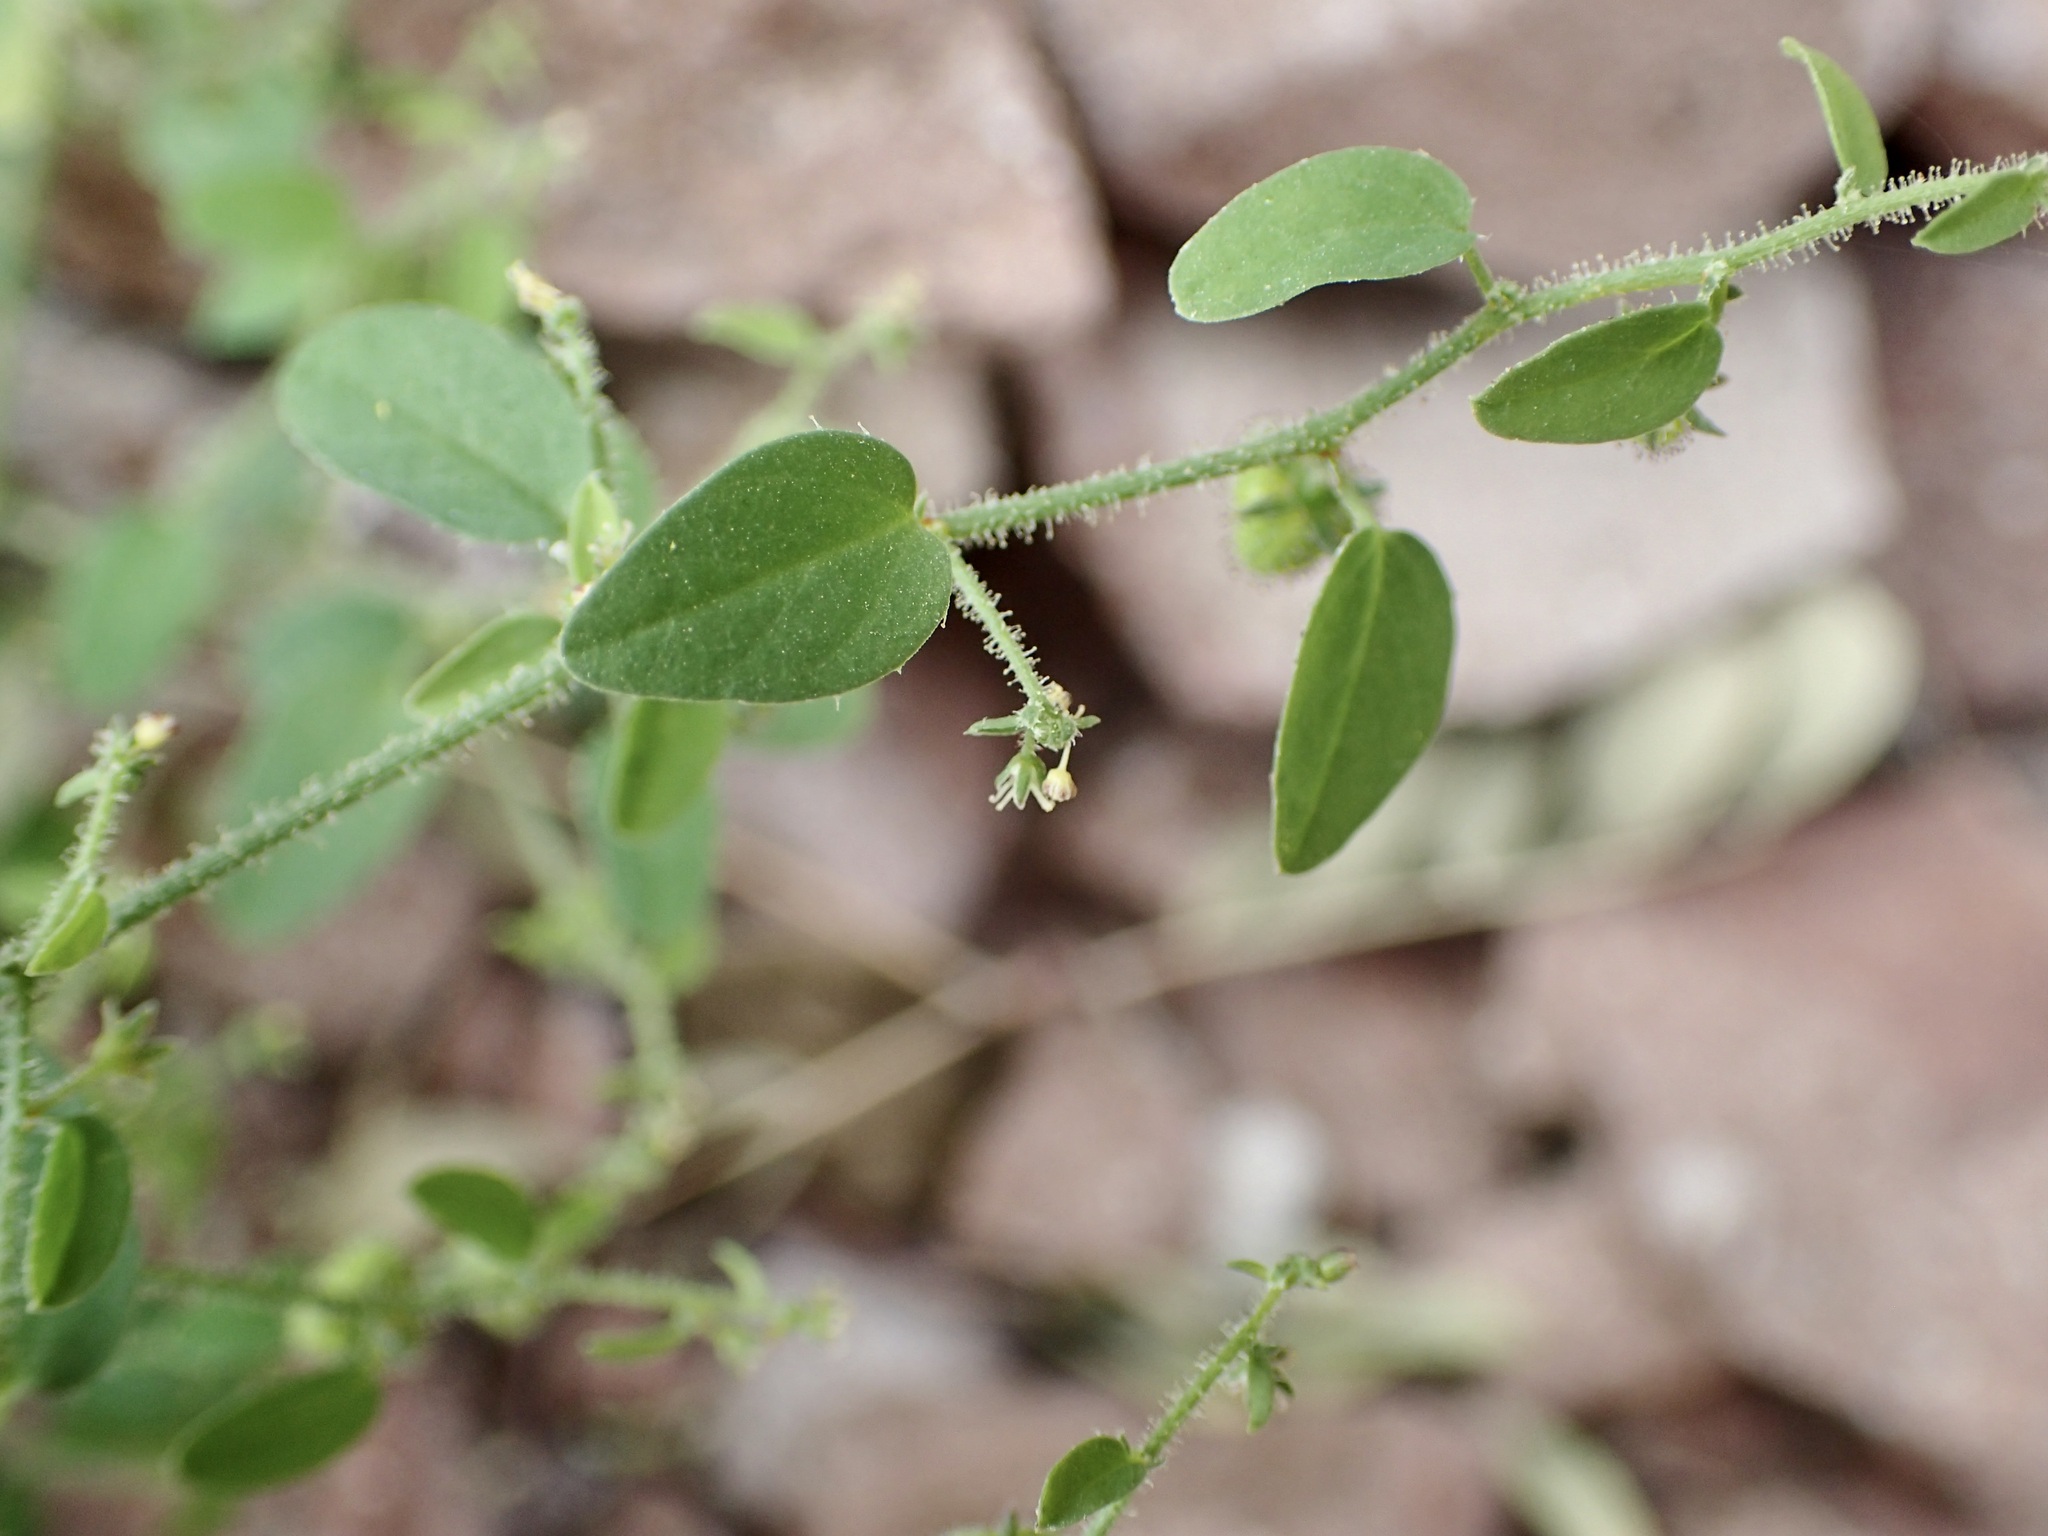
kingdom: Plantae
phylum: Tracheophyta
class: Magnoliopsida
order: Malpighiales
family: Phyllanthaceae
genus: Andrachne
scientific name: Andrachne microphylla
